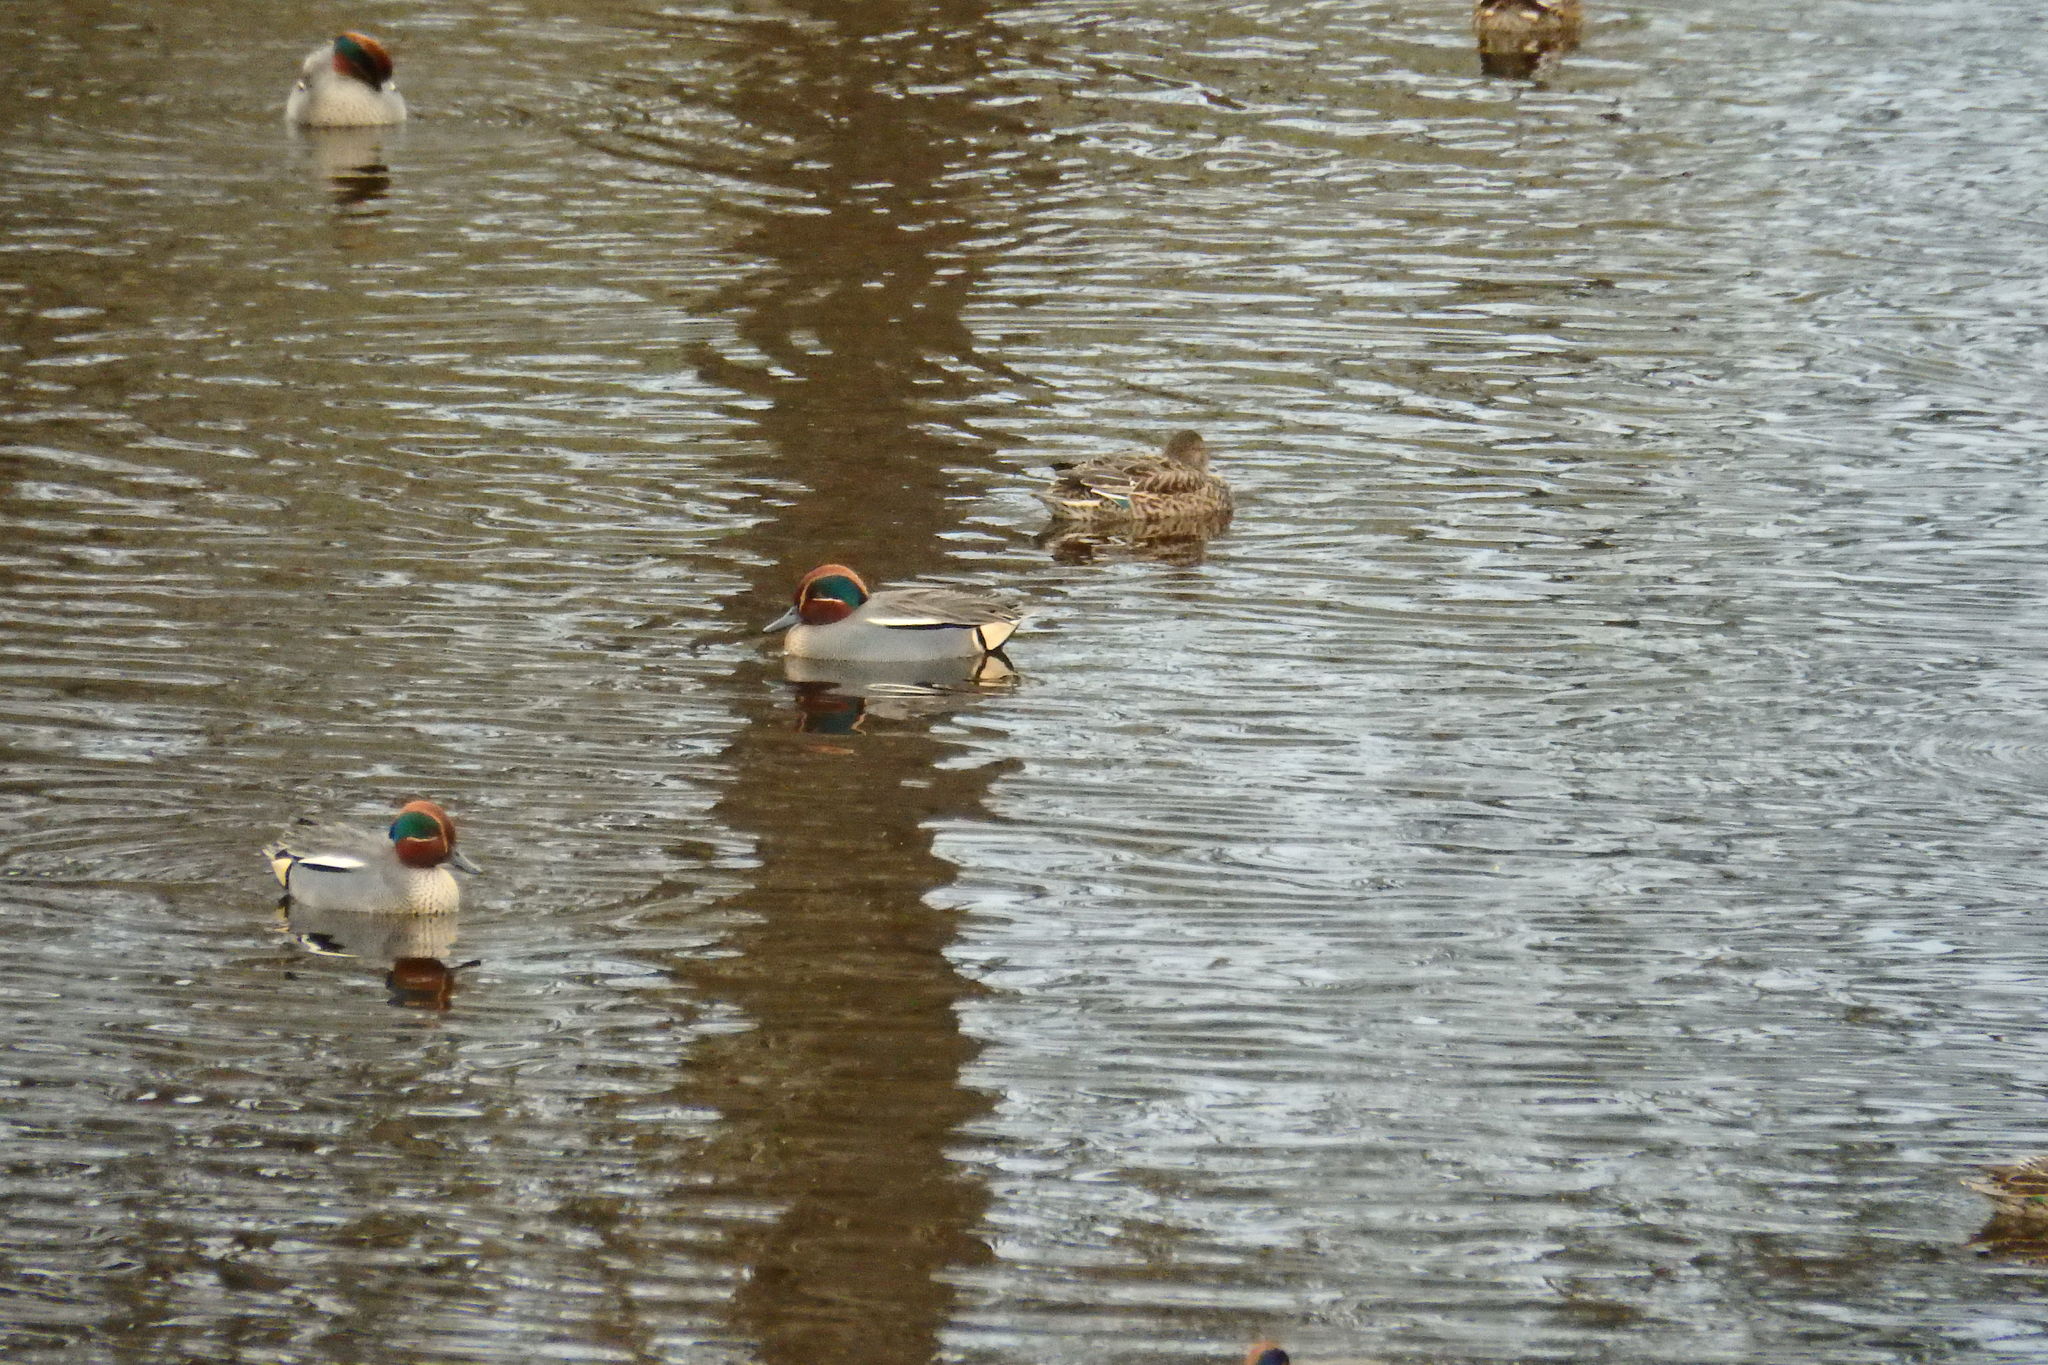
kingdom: Animalia
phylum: Chordata
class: Aves
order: Anseriformes
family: Anatidae
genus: Anas
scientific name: Anas crecca
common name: Eurasian teal
